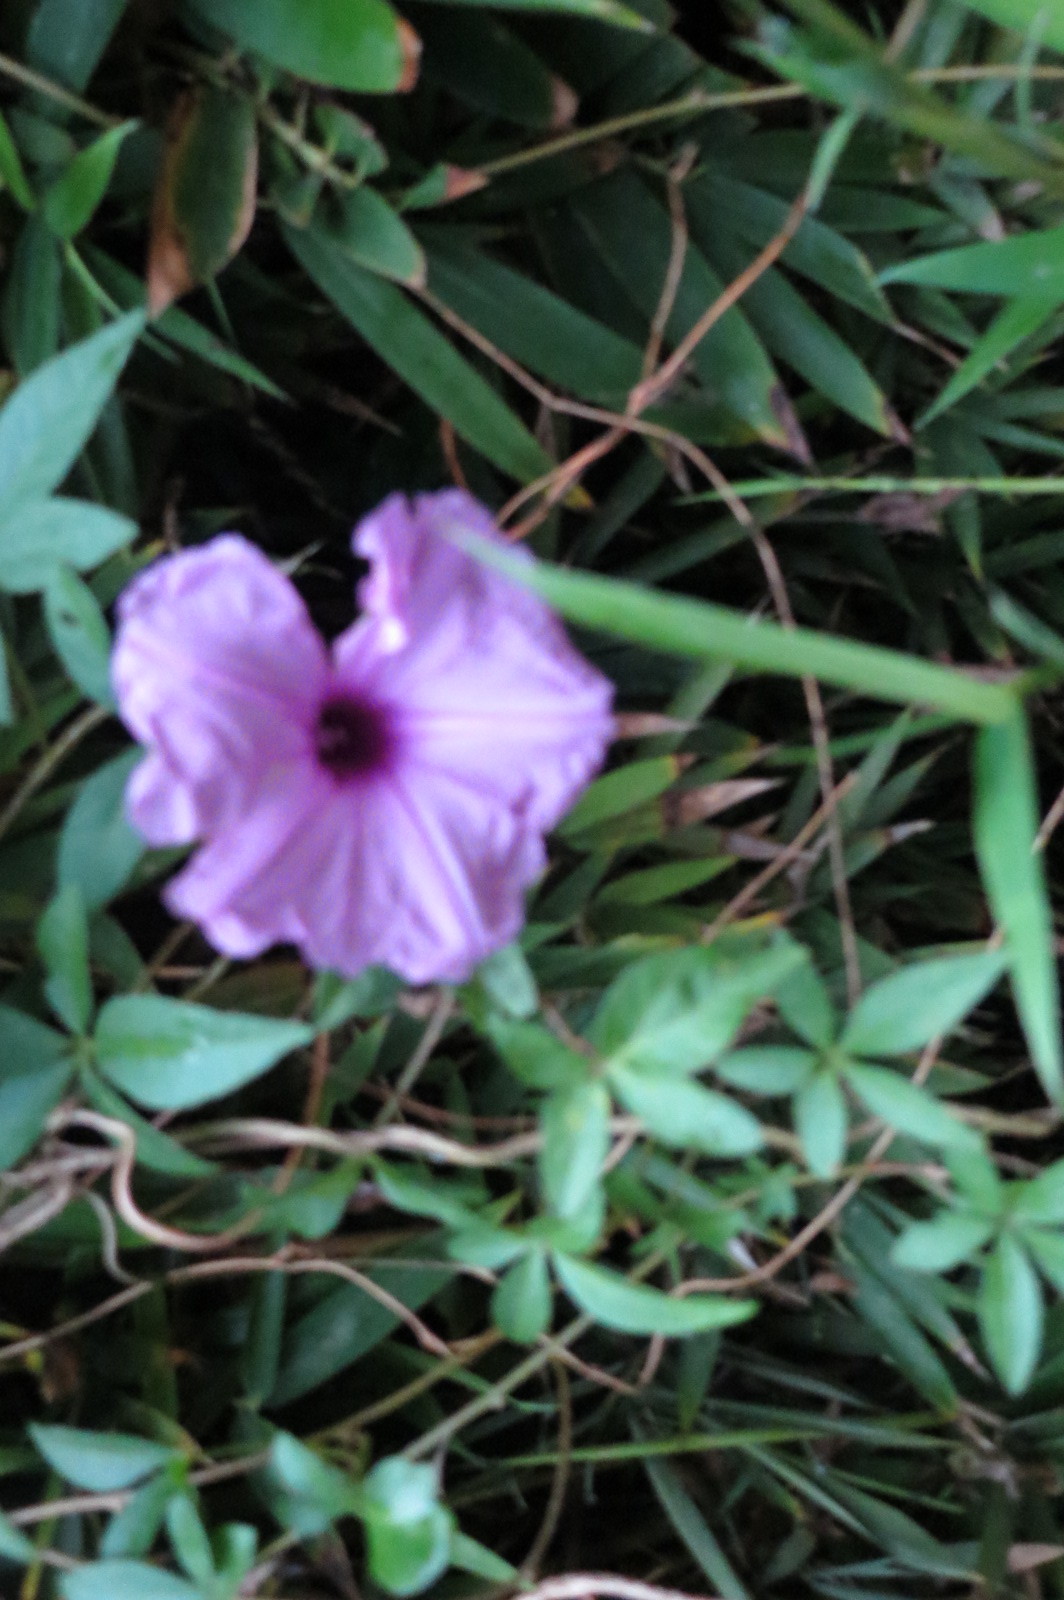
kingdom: Plantae
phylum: Tracheophyta
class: Magnoliopsida
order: Solanales
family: Convolvulaceae
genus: Ipomoea
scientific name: Ipomoea cairica
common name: Mile a minute vine
